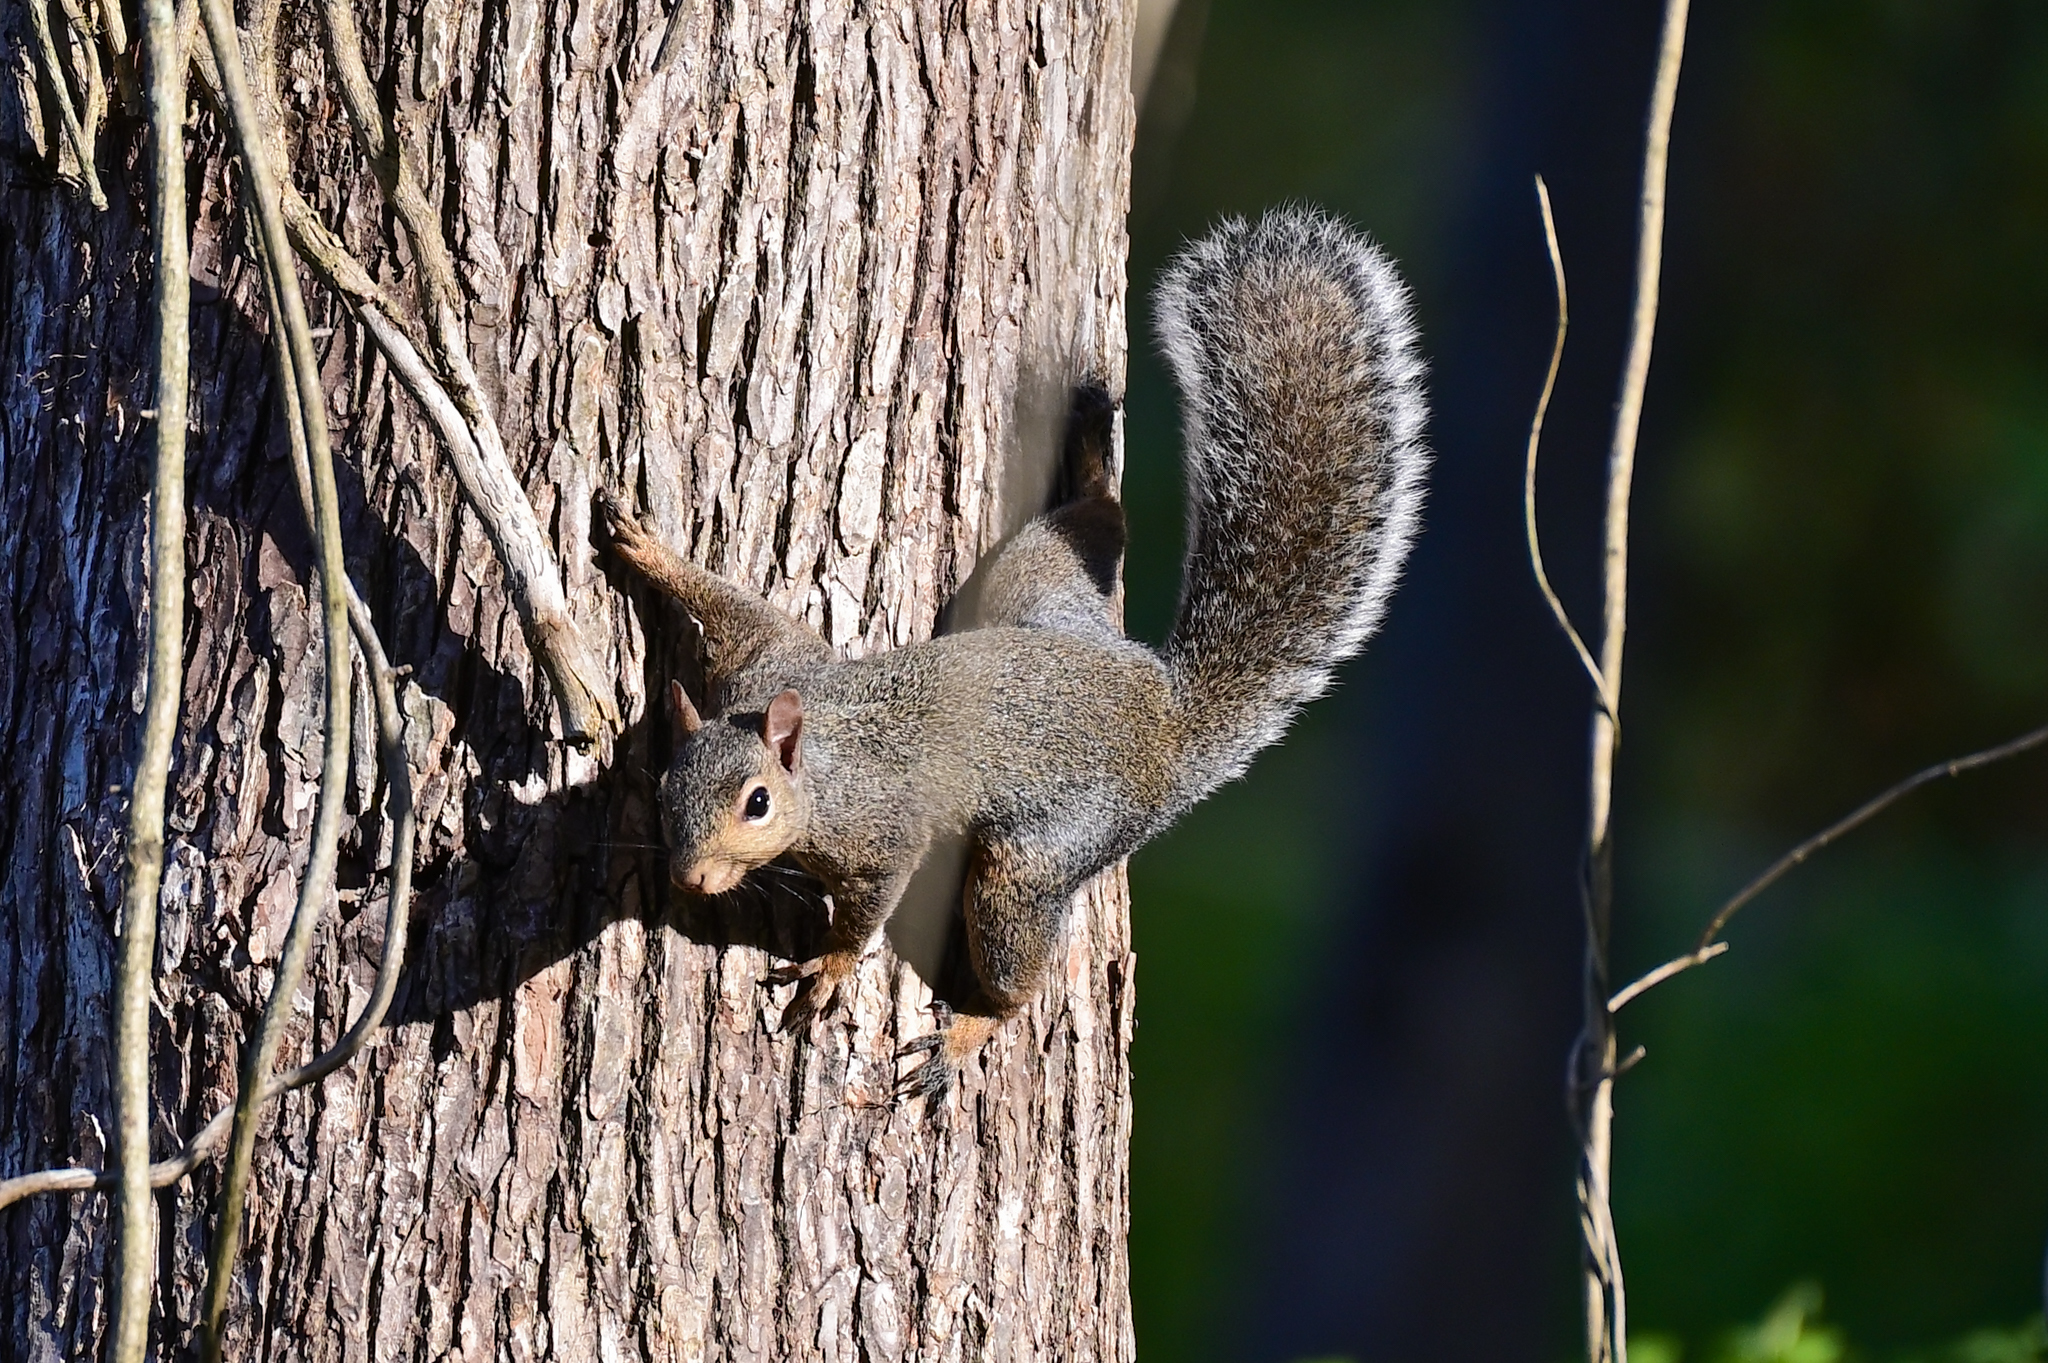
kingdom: Animalia
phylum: Chordata
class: Mammalia
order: Rodentia
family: Sciuridae
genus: Sciurus
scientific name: Sciurus carolinensis
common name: Eastern gray squirrel
